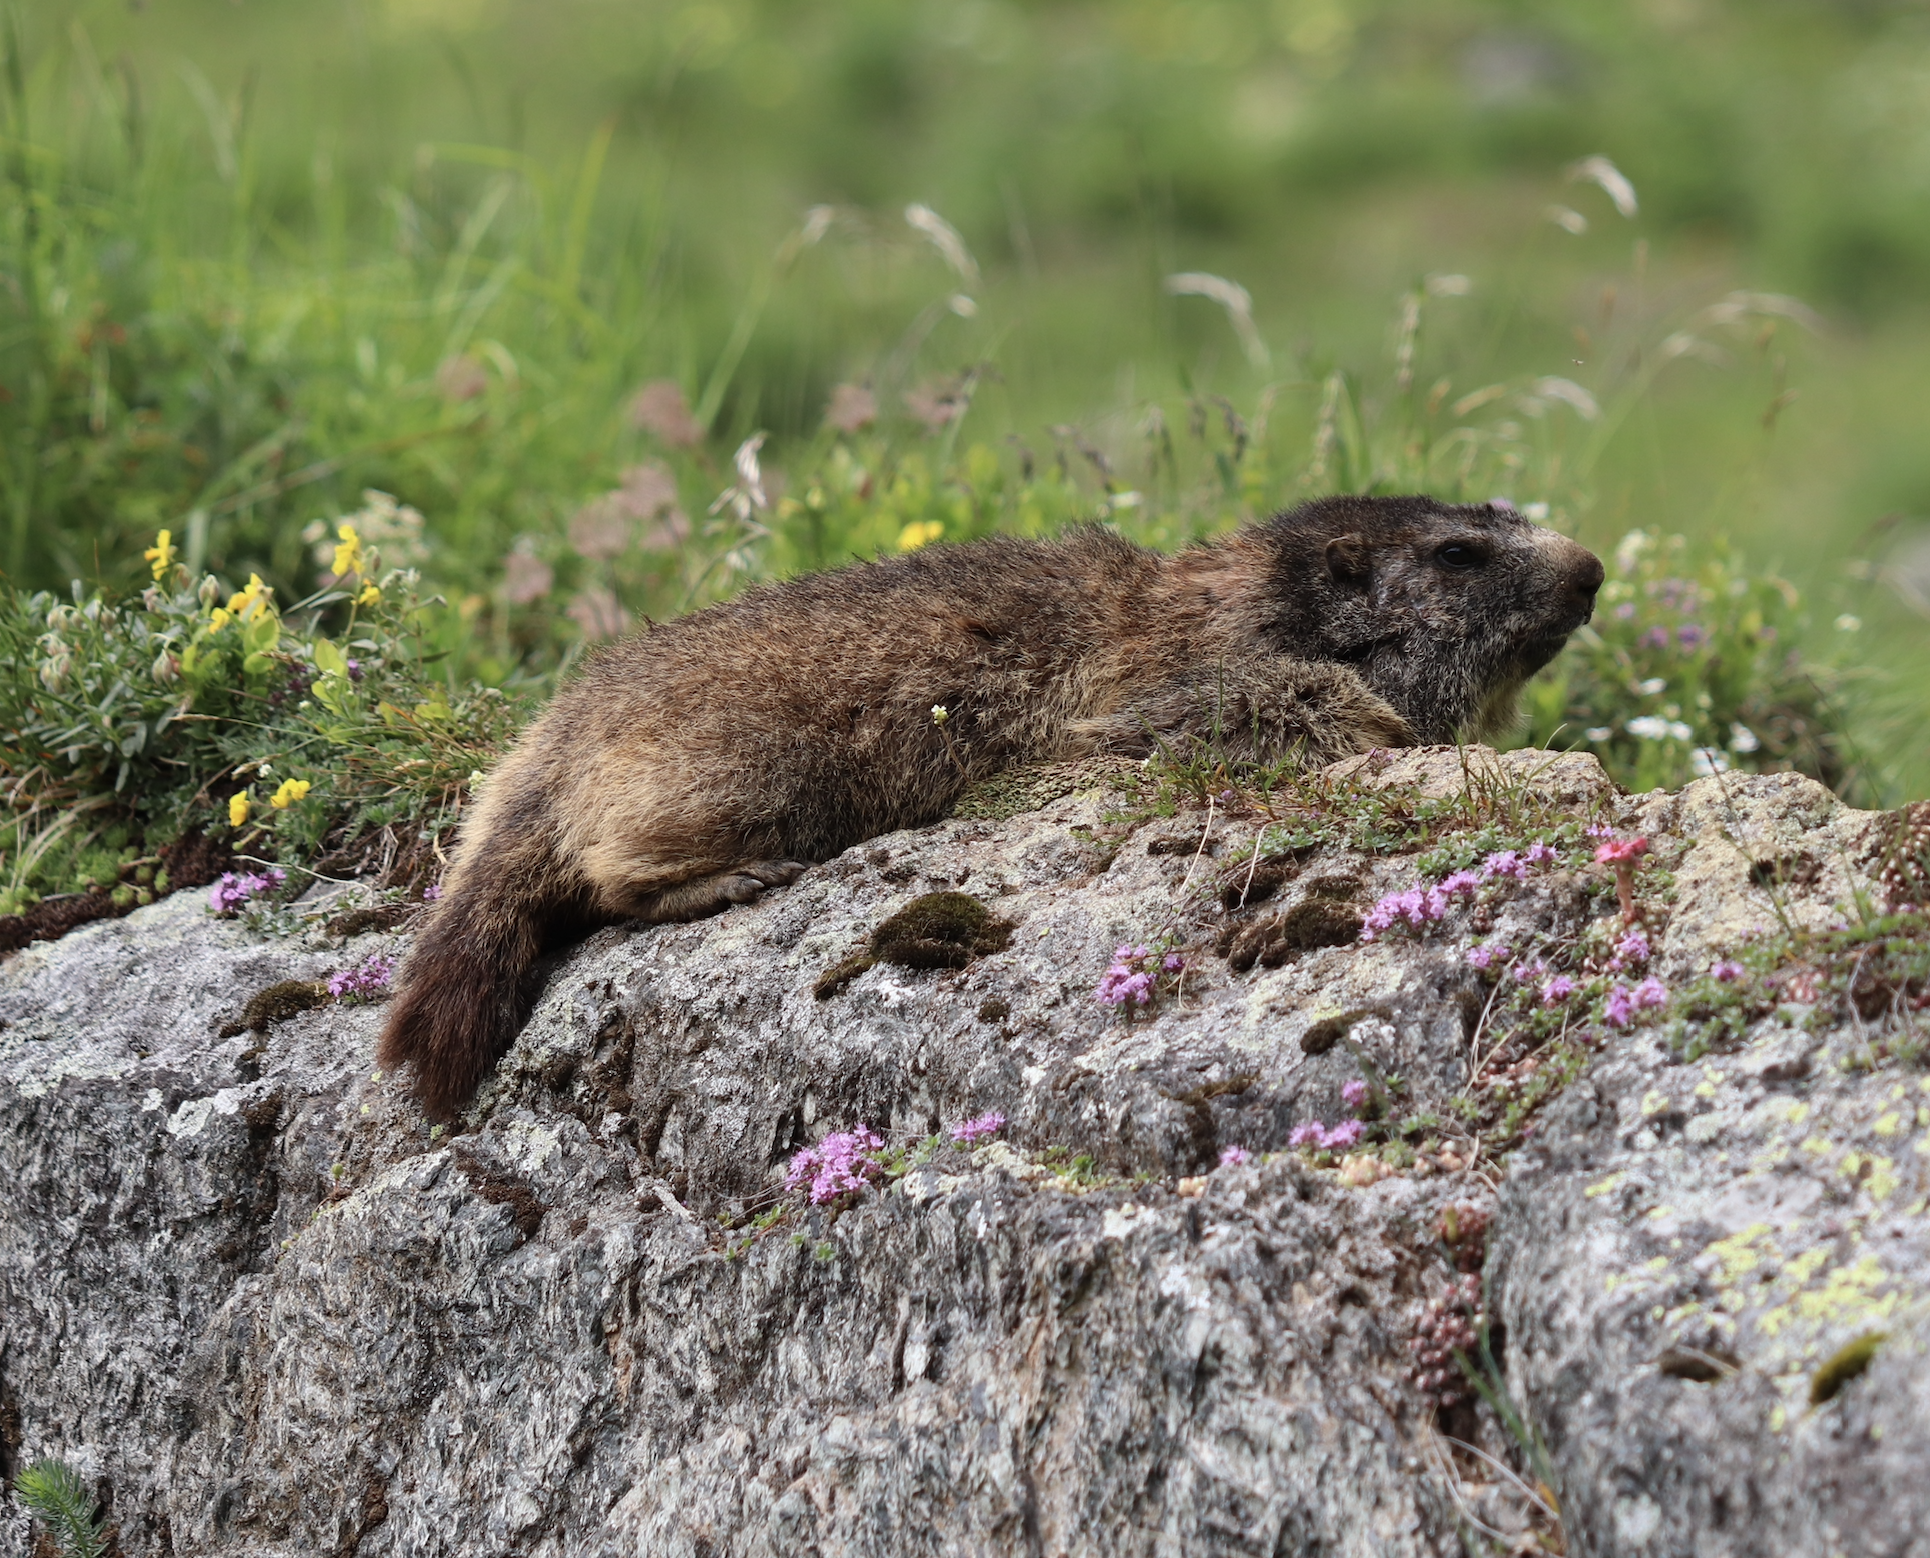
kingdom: Animalia
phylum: Chordata
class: Mammalia
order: Rodentia
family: Sciuridae
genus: Marmota
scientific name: Marmota marmota
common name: Alpine marmot
